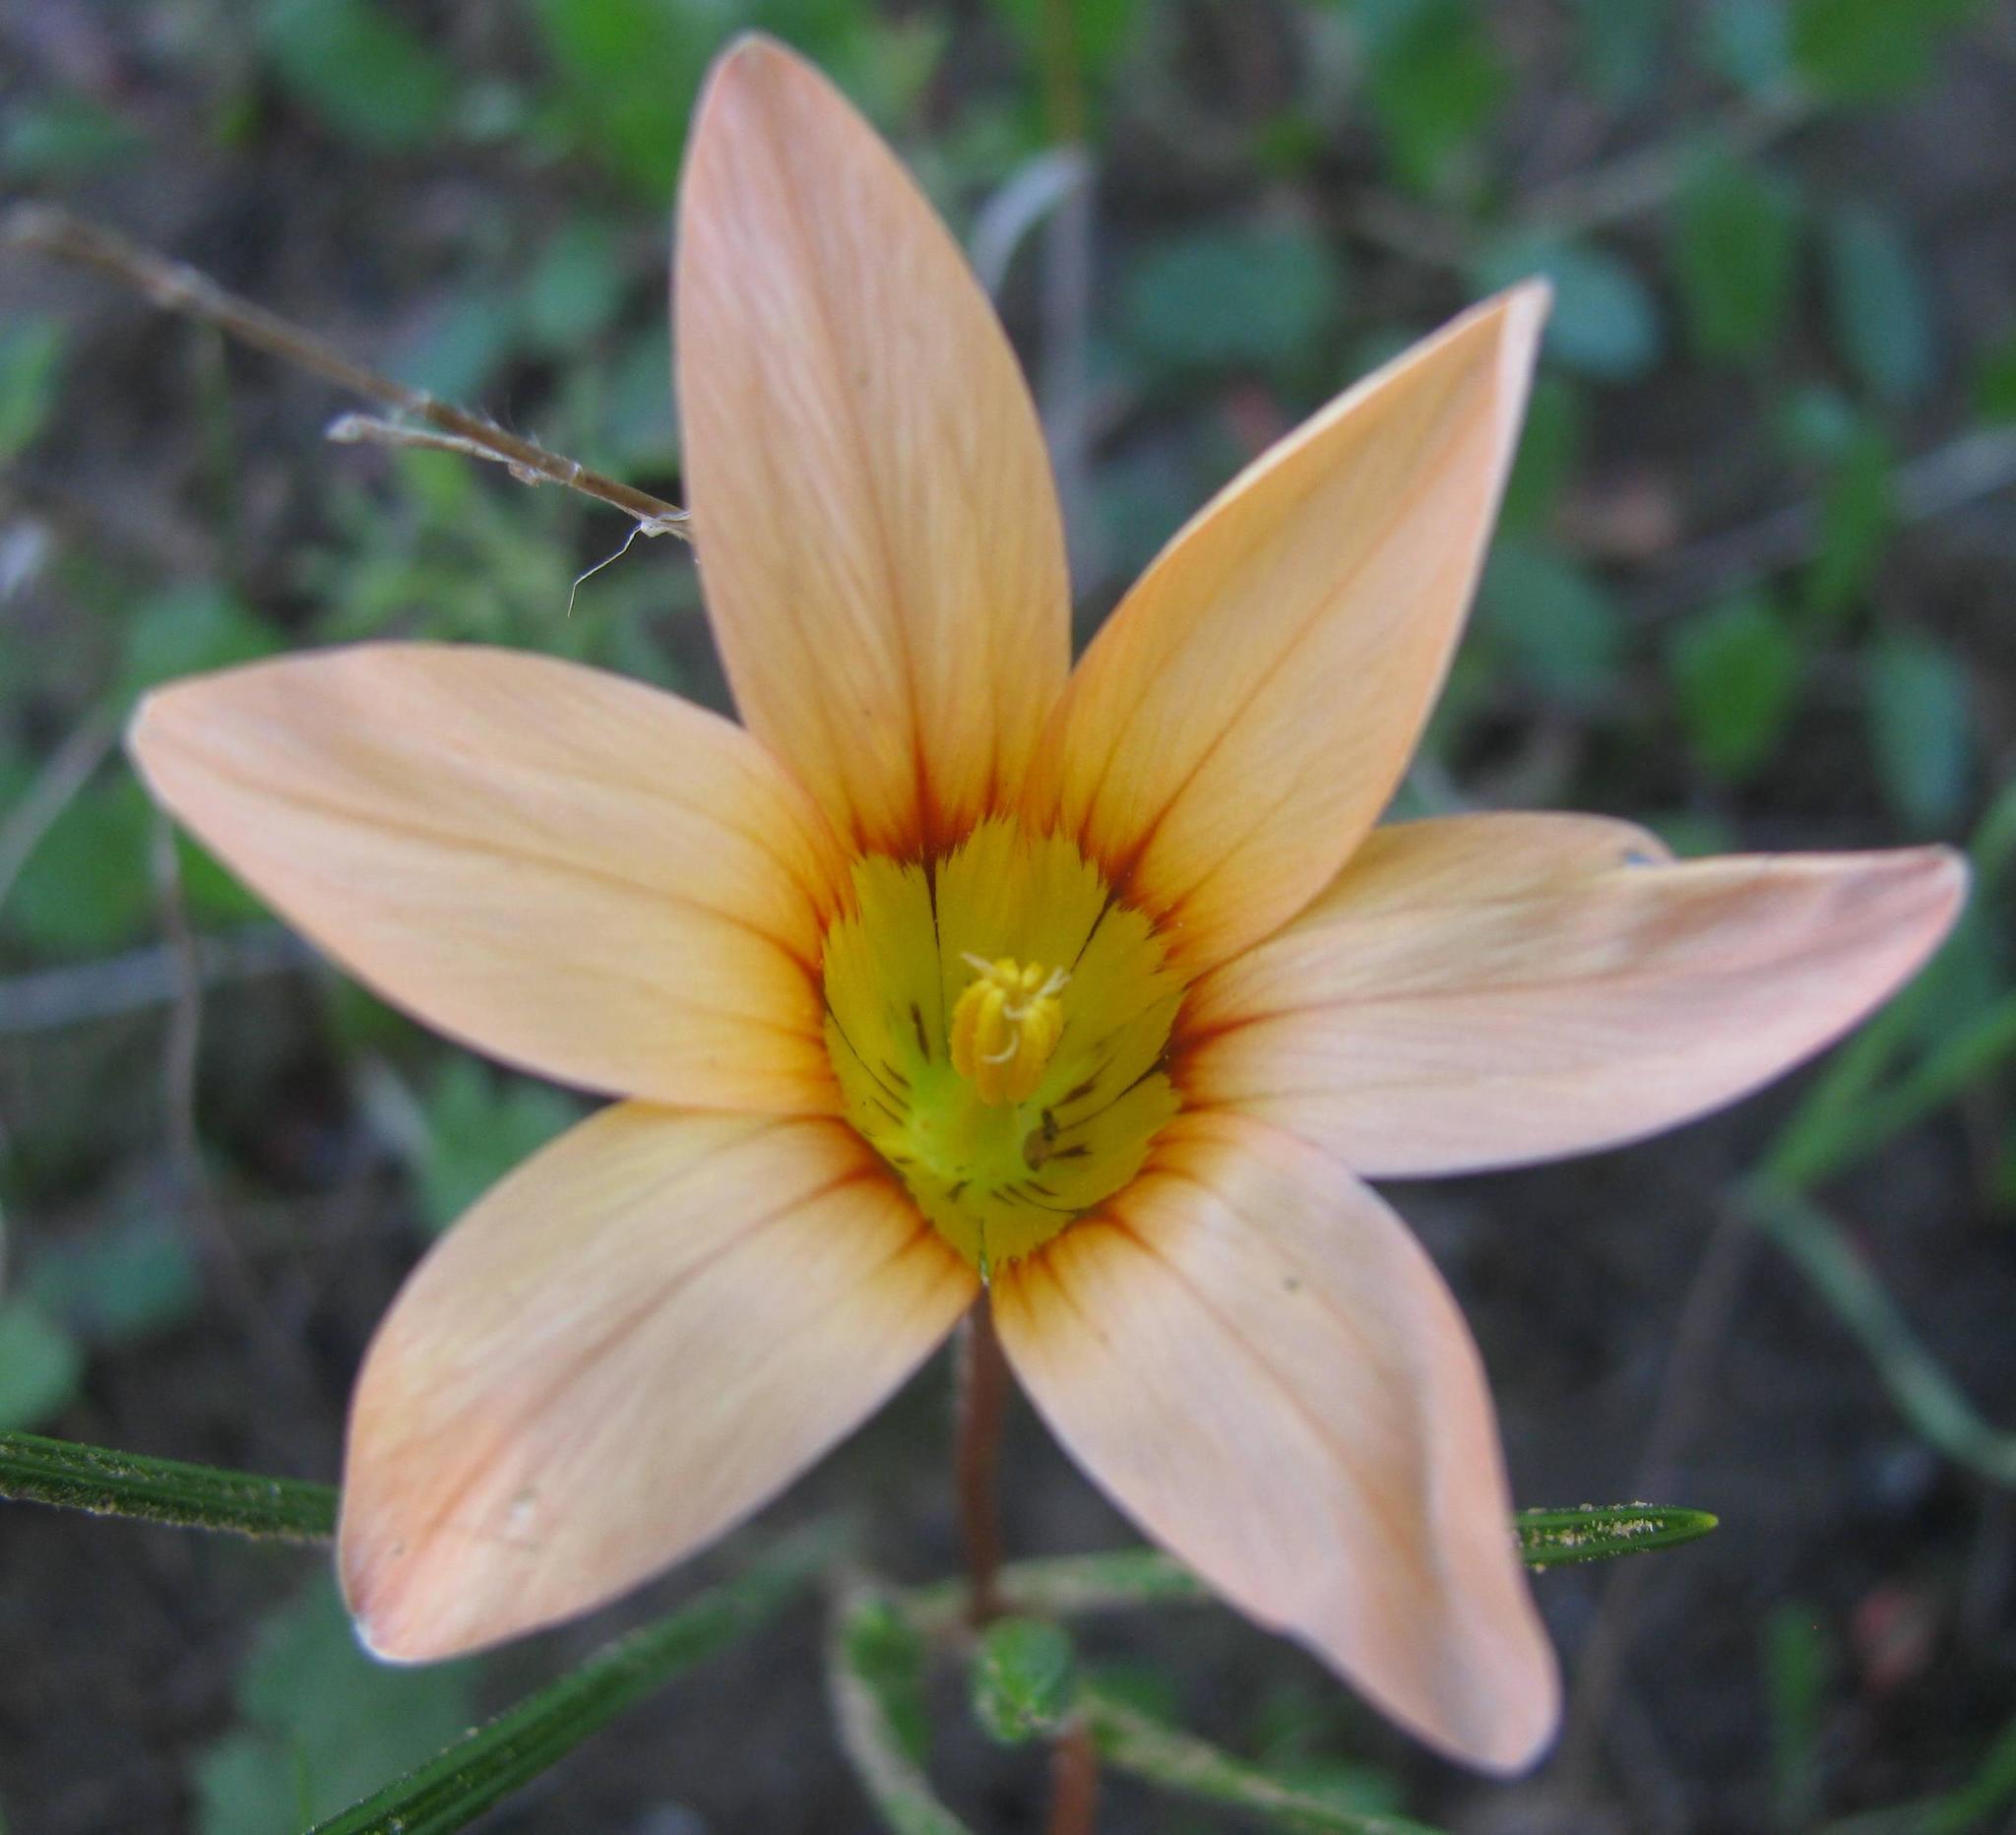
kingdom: Plantae
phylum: Tracheophyta
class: Liliopsida
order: Asparagales
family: Iridaceae
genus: Romulea
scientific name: Romulea setifolia
